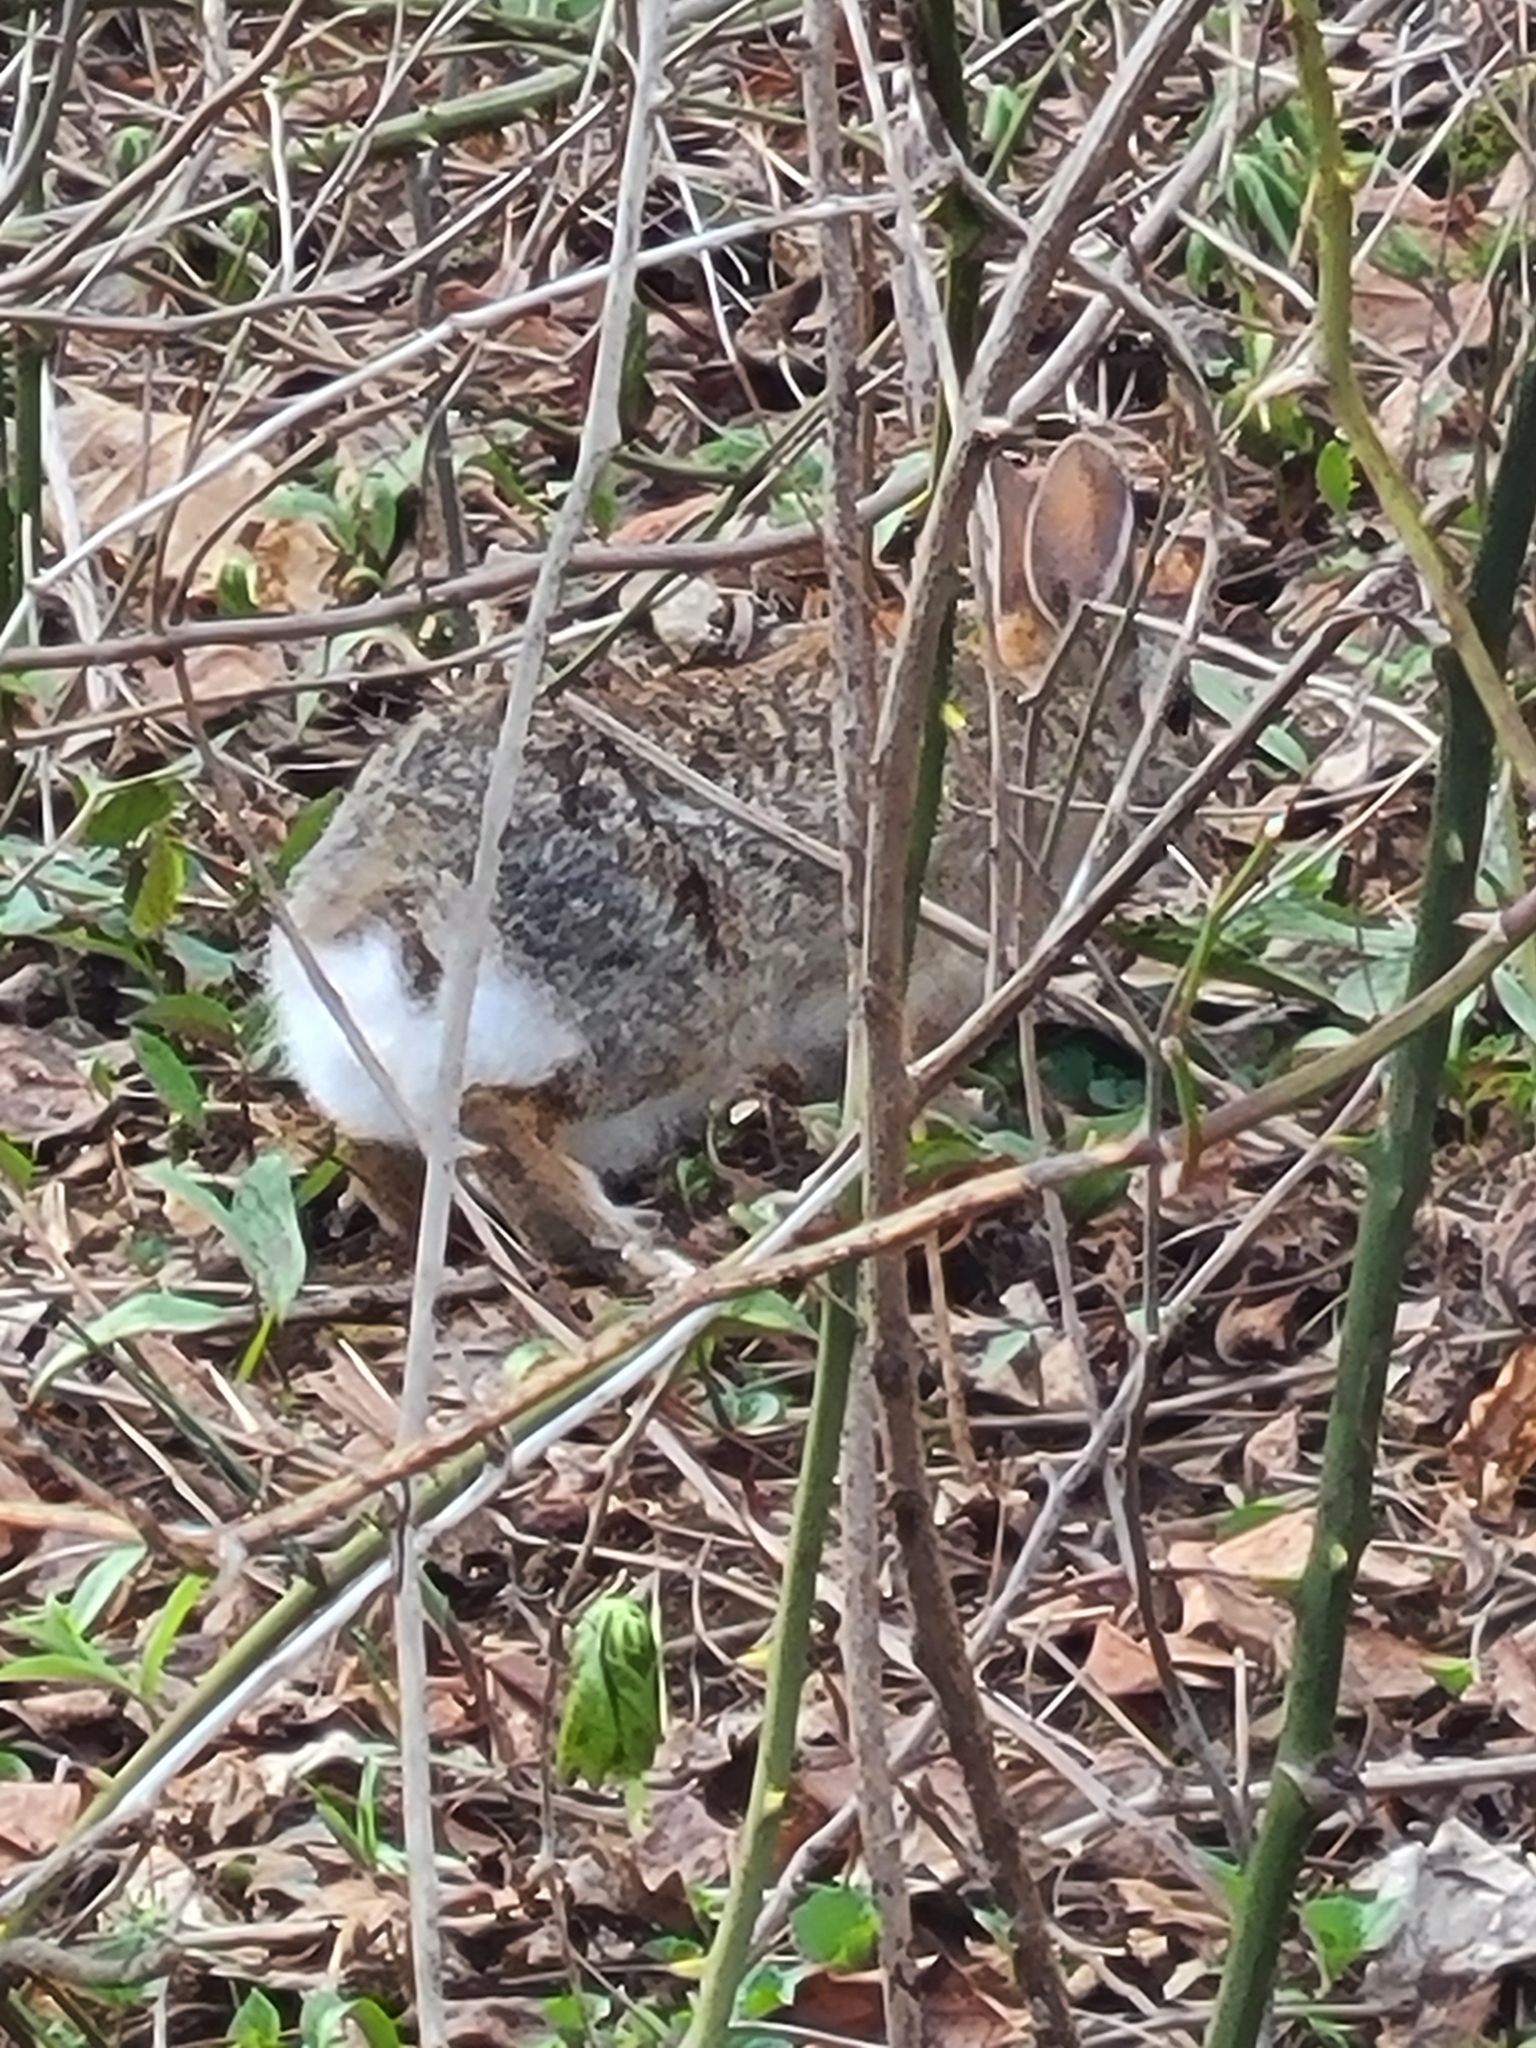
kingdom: Animalia
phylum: Chordata
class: Mammalia
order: Lagomorpha
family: Leporidae
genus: Sylvilagus
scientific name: Sylvilagus floridanus
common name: Eastern cottontail
